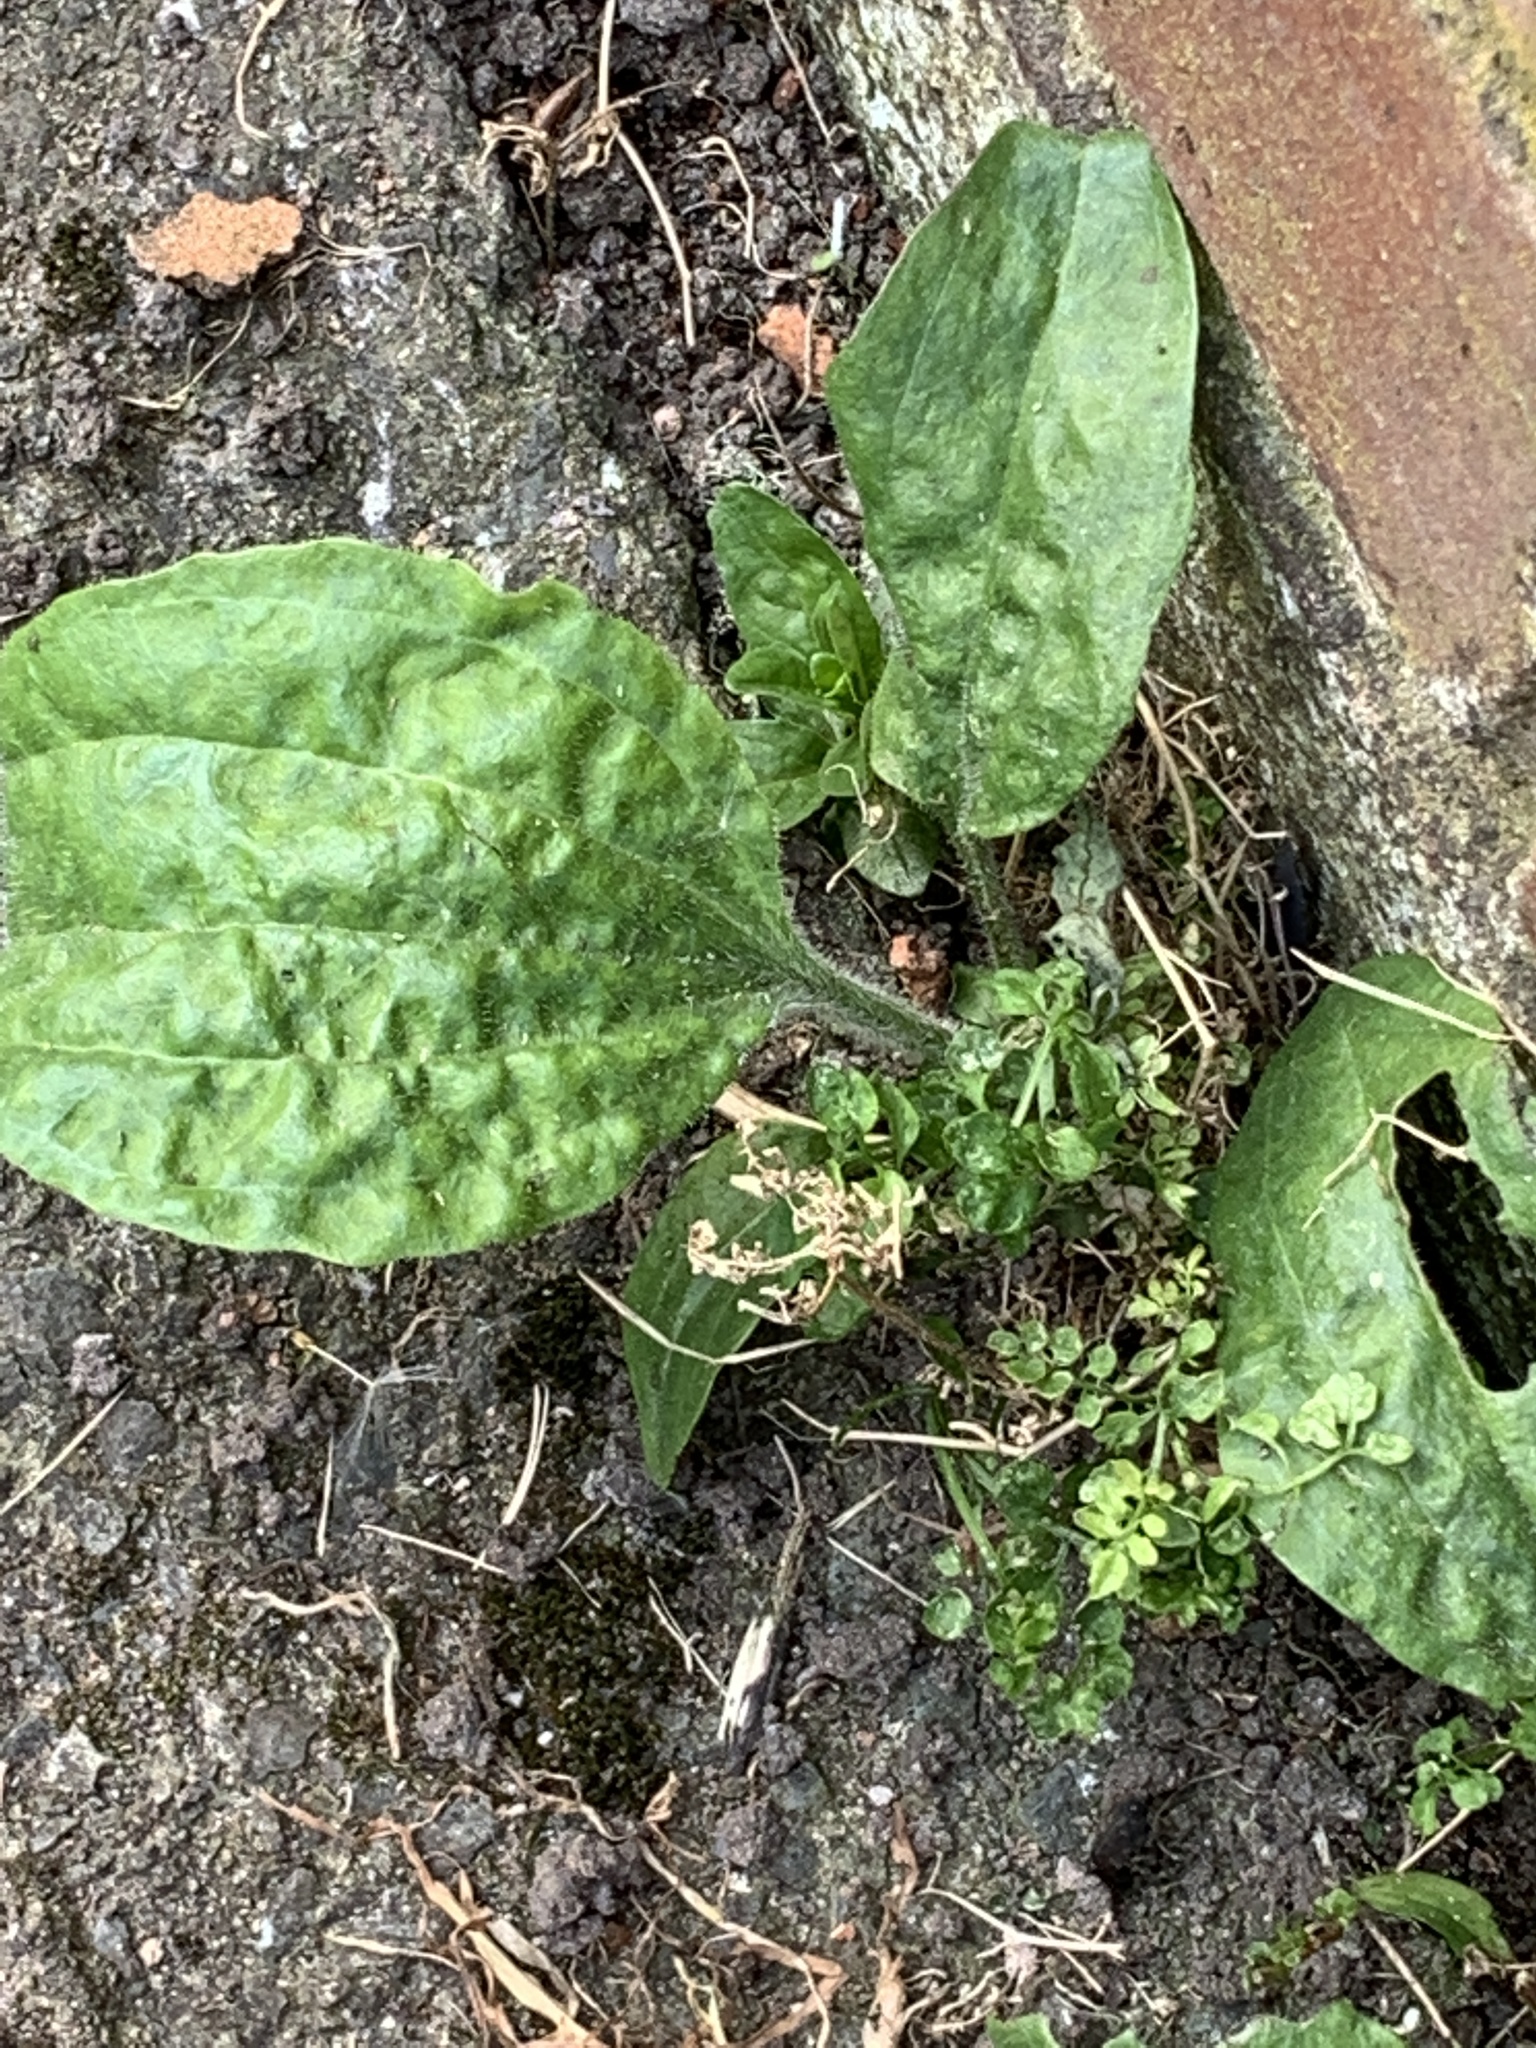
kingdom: Plantae
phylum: Tracheophyta
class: Magnoliopsida
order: Lamiales
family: Plantaginaceae
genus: Plantago
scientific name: Plantago major
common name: Common plantain
